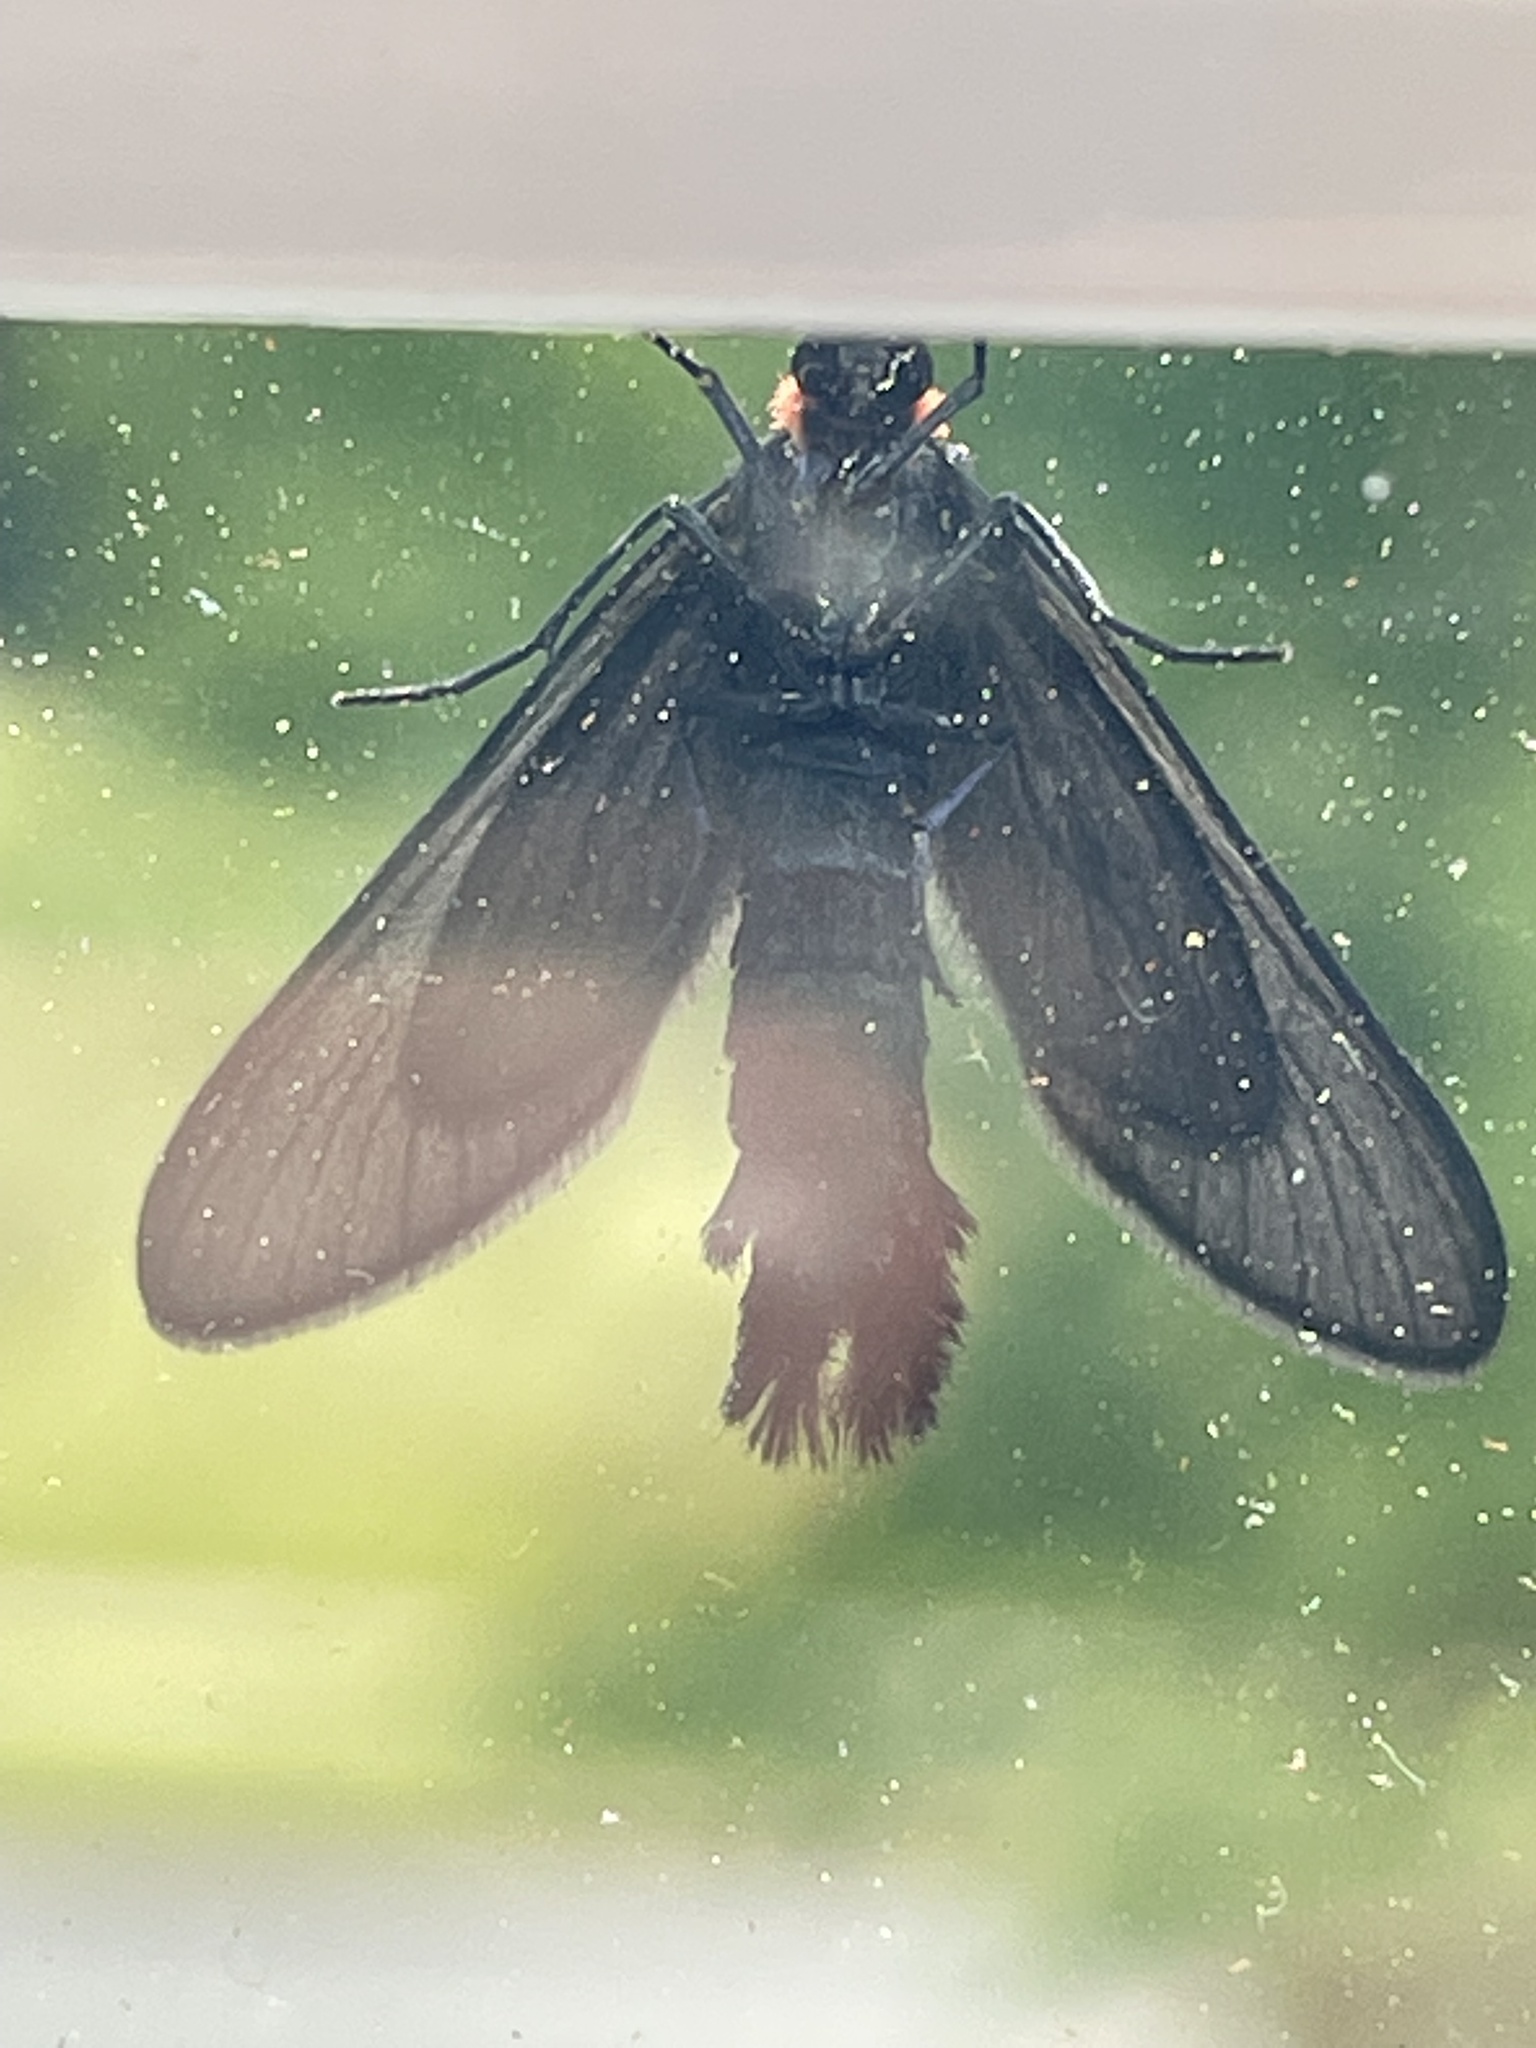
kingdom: Animalia
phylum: Arthropoda
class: Insecta
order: Lepidoptera
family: Zygaenidae
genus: Harrisina
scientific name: Harrisina americana
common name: Grapeleaf skeletonizer moth
